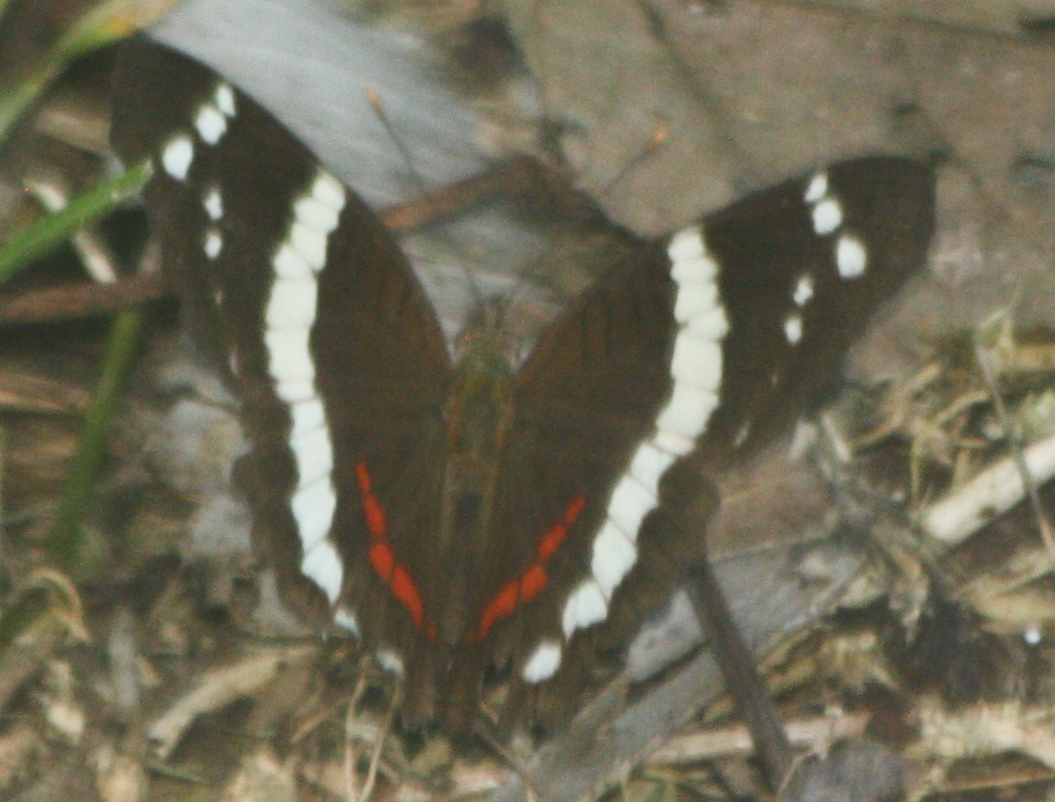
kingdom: Animalia
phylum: Arthropoda
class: Insecta
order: Lepidoptera
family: Nymphalidae
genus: Anartia
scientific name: Anartia fatima
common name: Banded peacock
